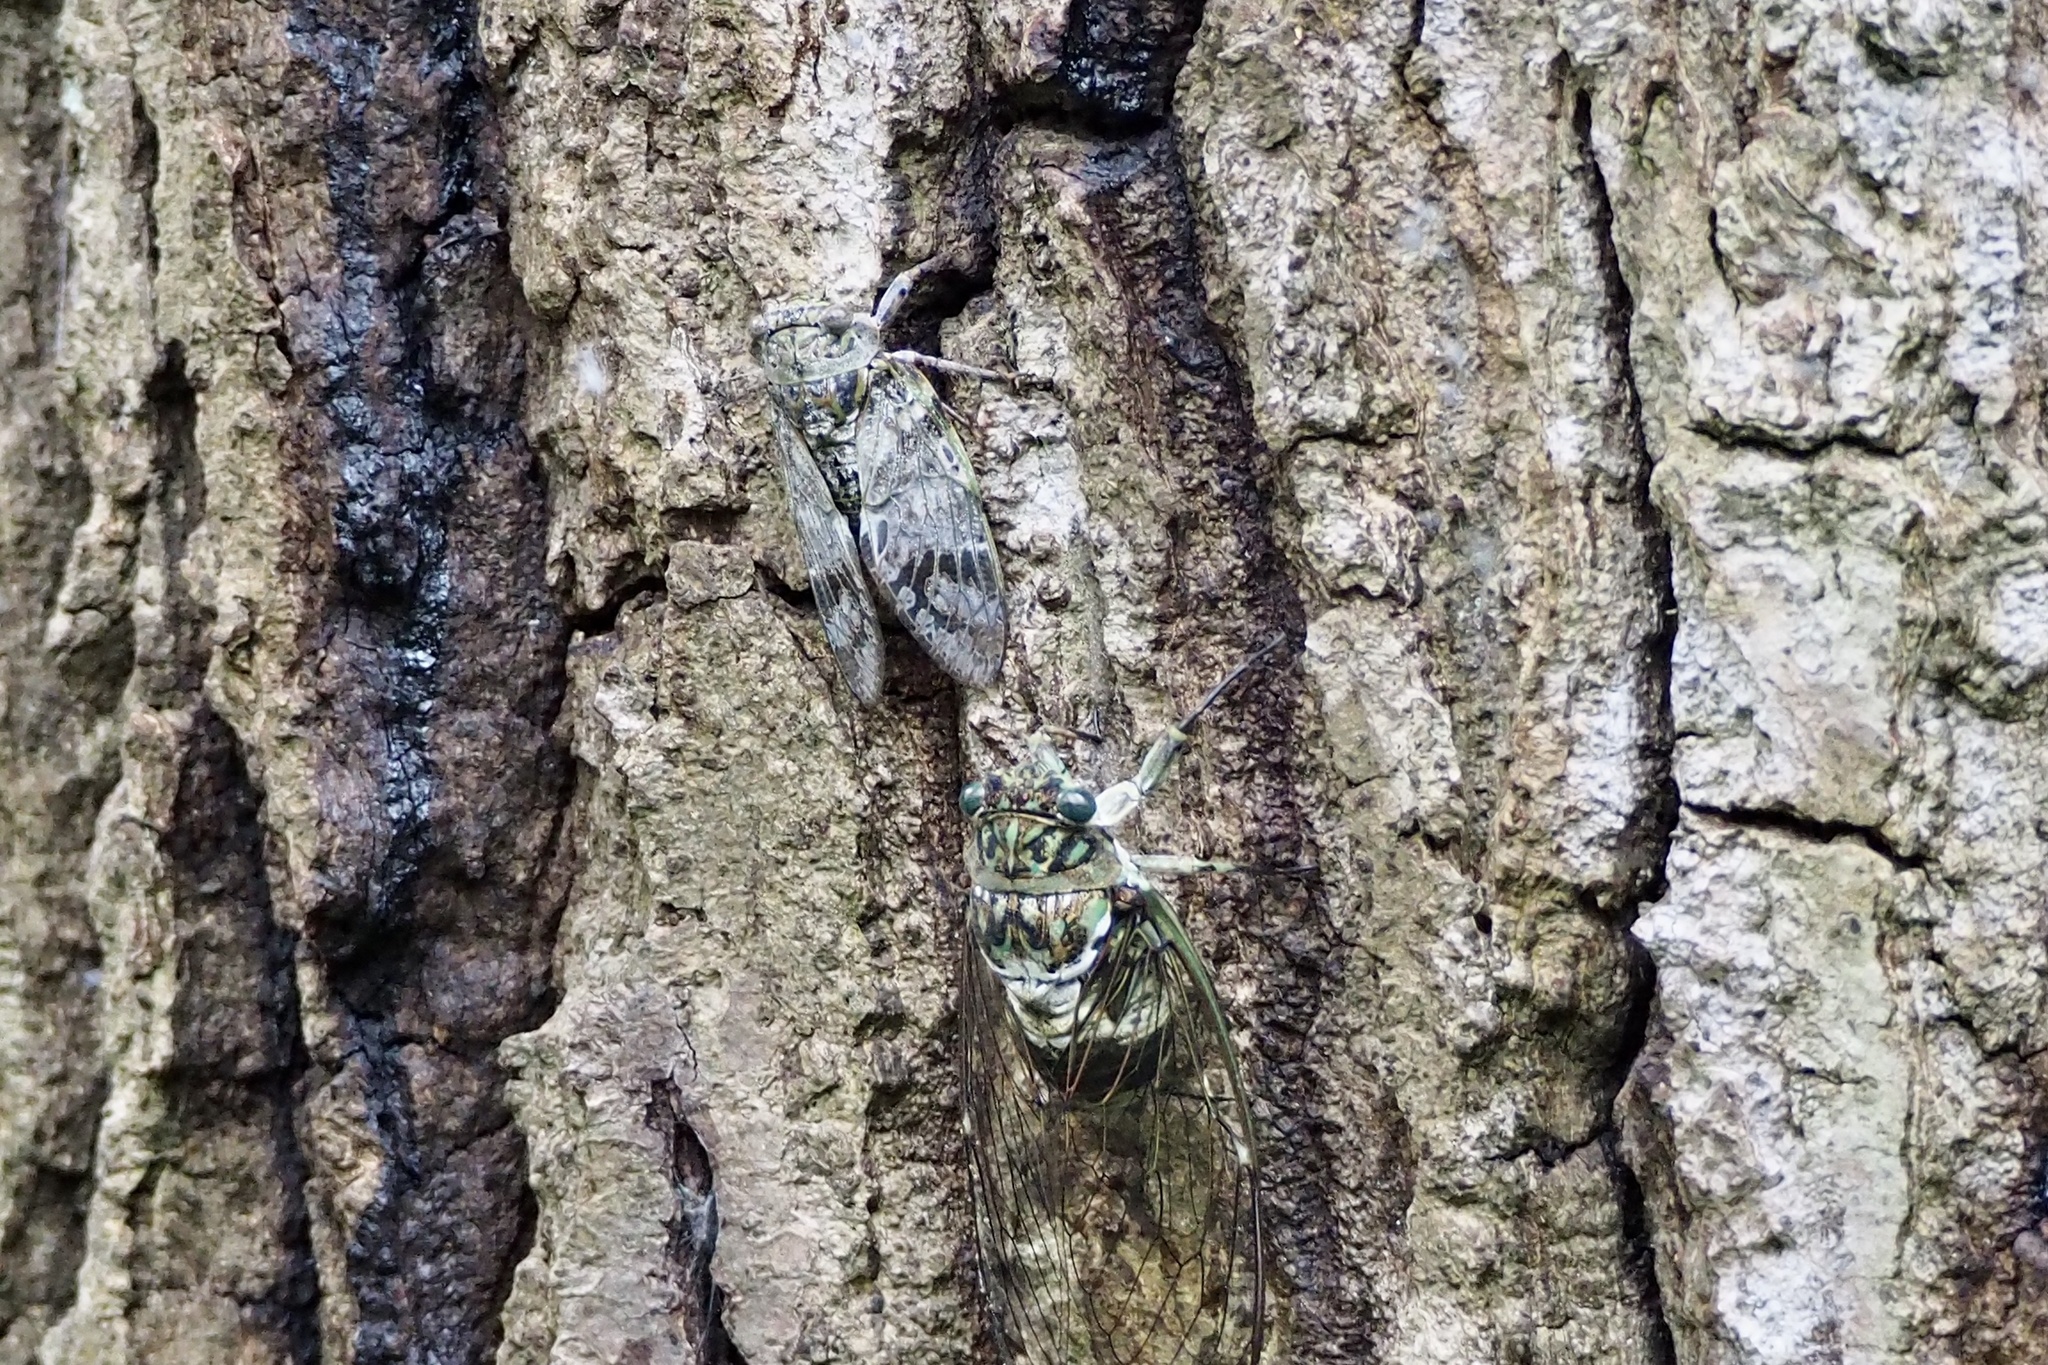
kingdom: Animalia
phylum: Arthropoda
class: Insecta
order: Hemiptera
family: Cicadidae
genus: Platypleura
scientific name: Platypleura kaempferi
